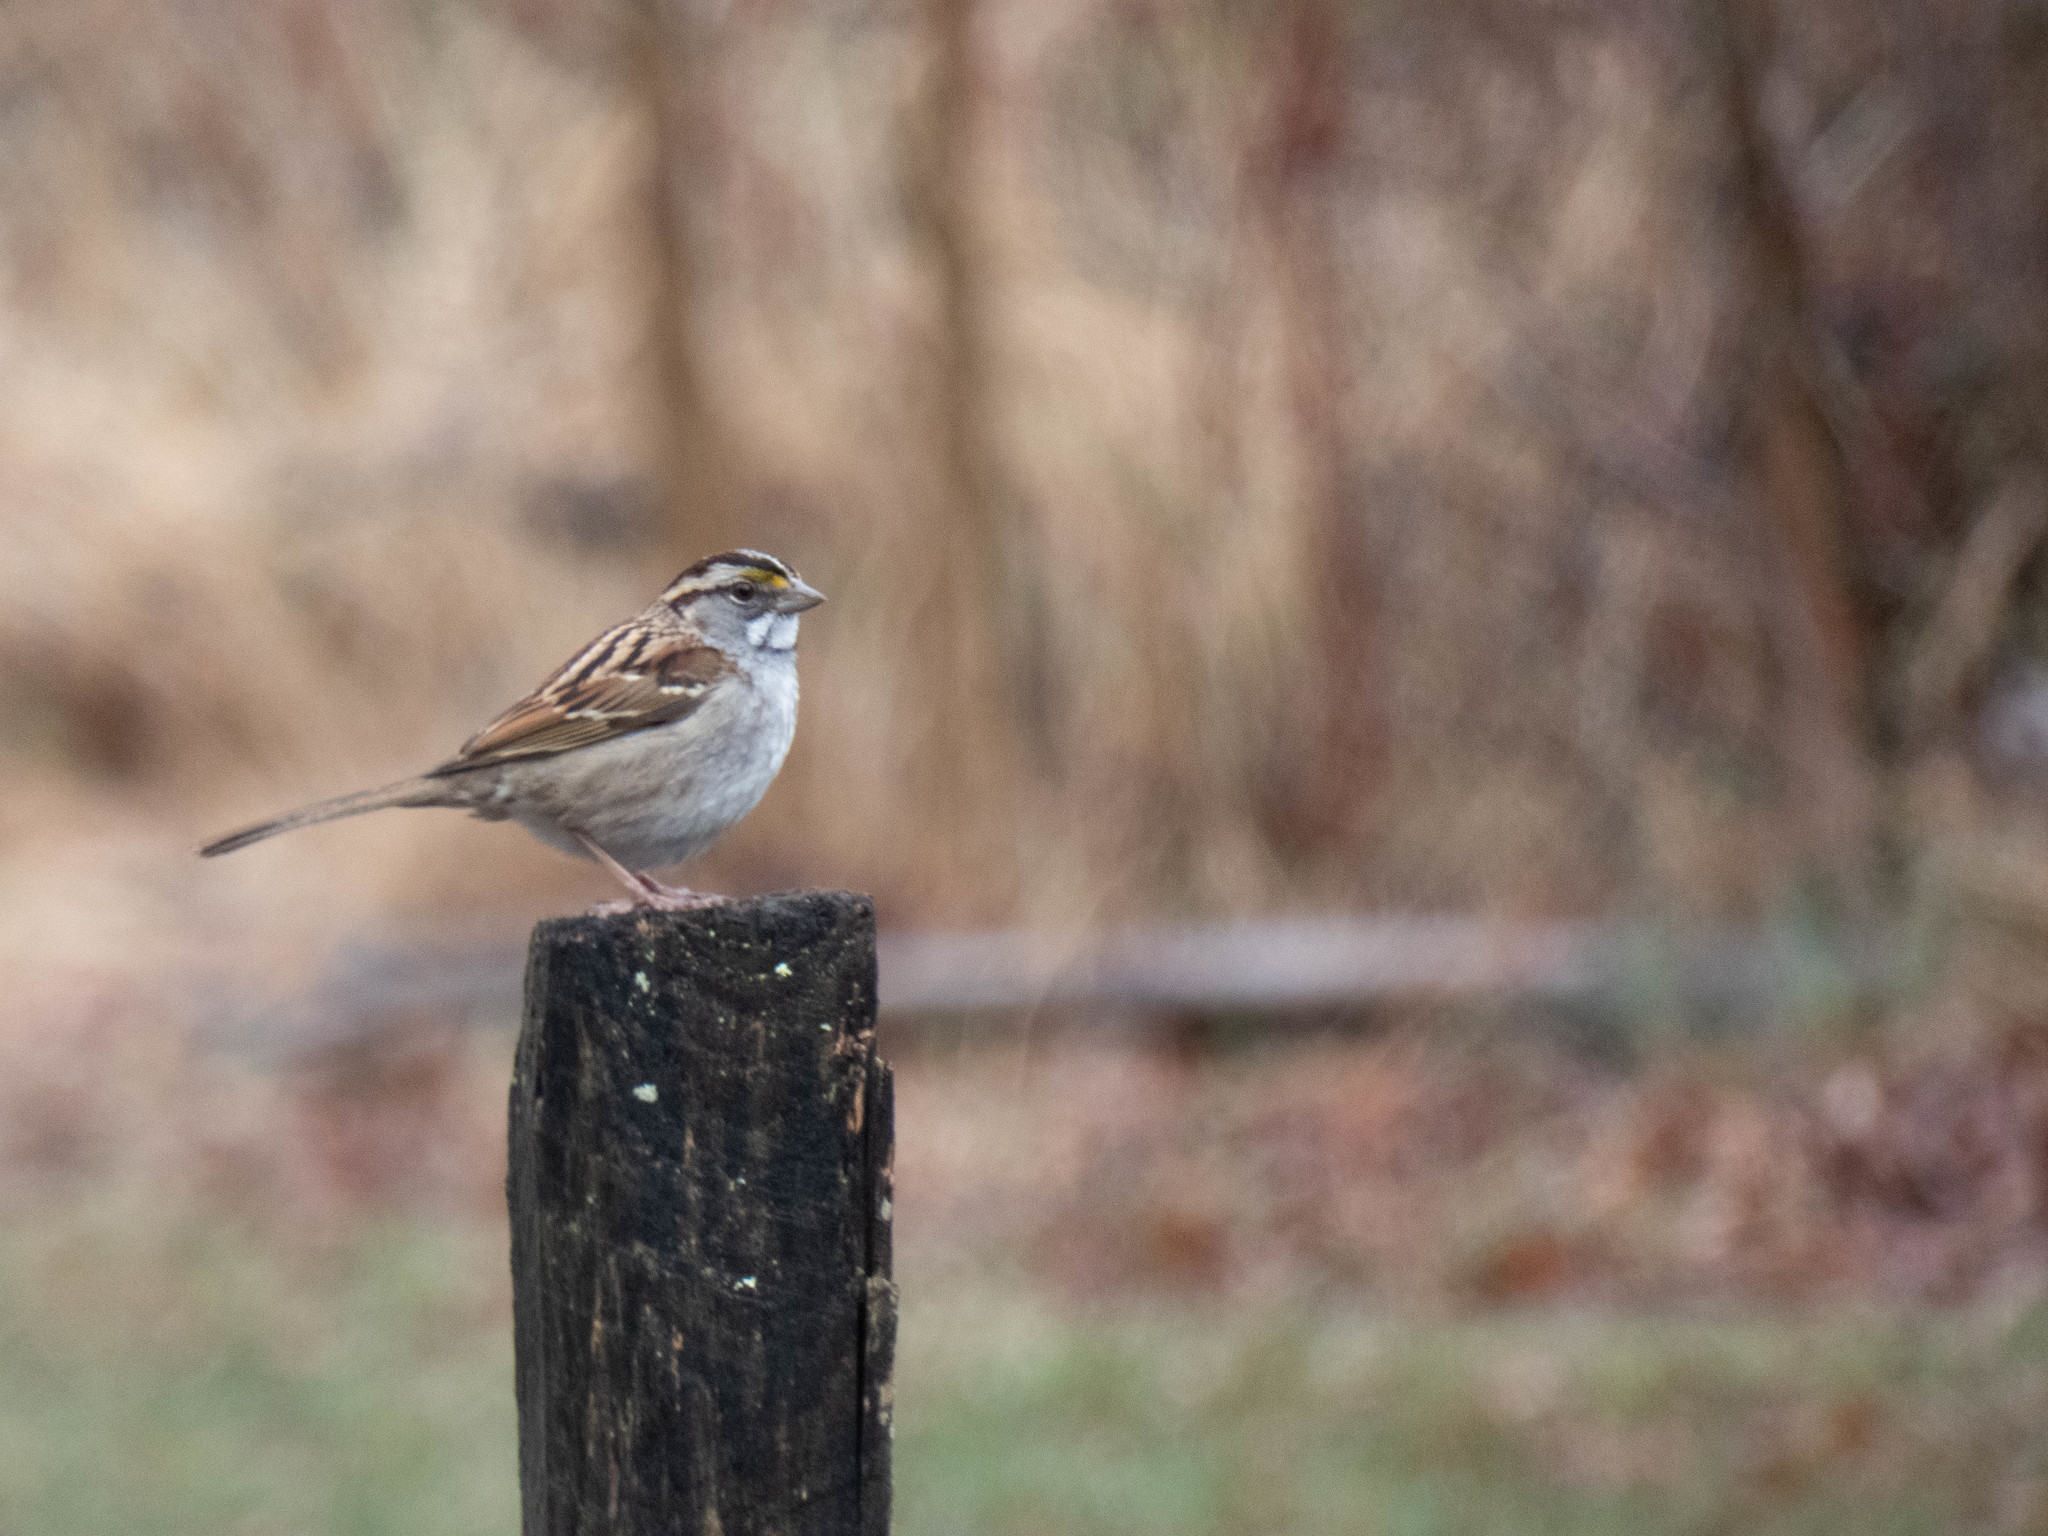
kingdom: Animalia
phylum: Chordata
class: Aves
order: Passeriformes
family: Passerellidae
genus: Zonotrichia
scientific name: Zonotrichia albicollis
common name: White-throated sparrow
